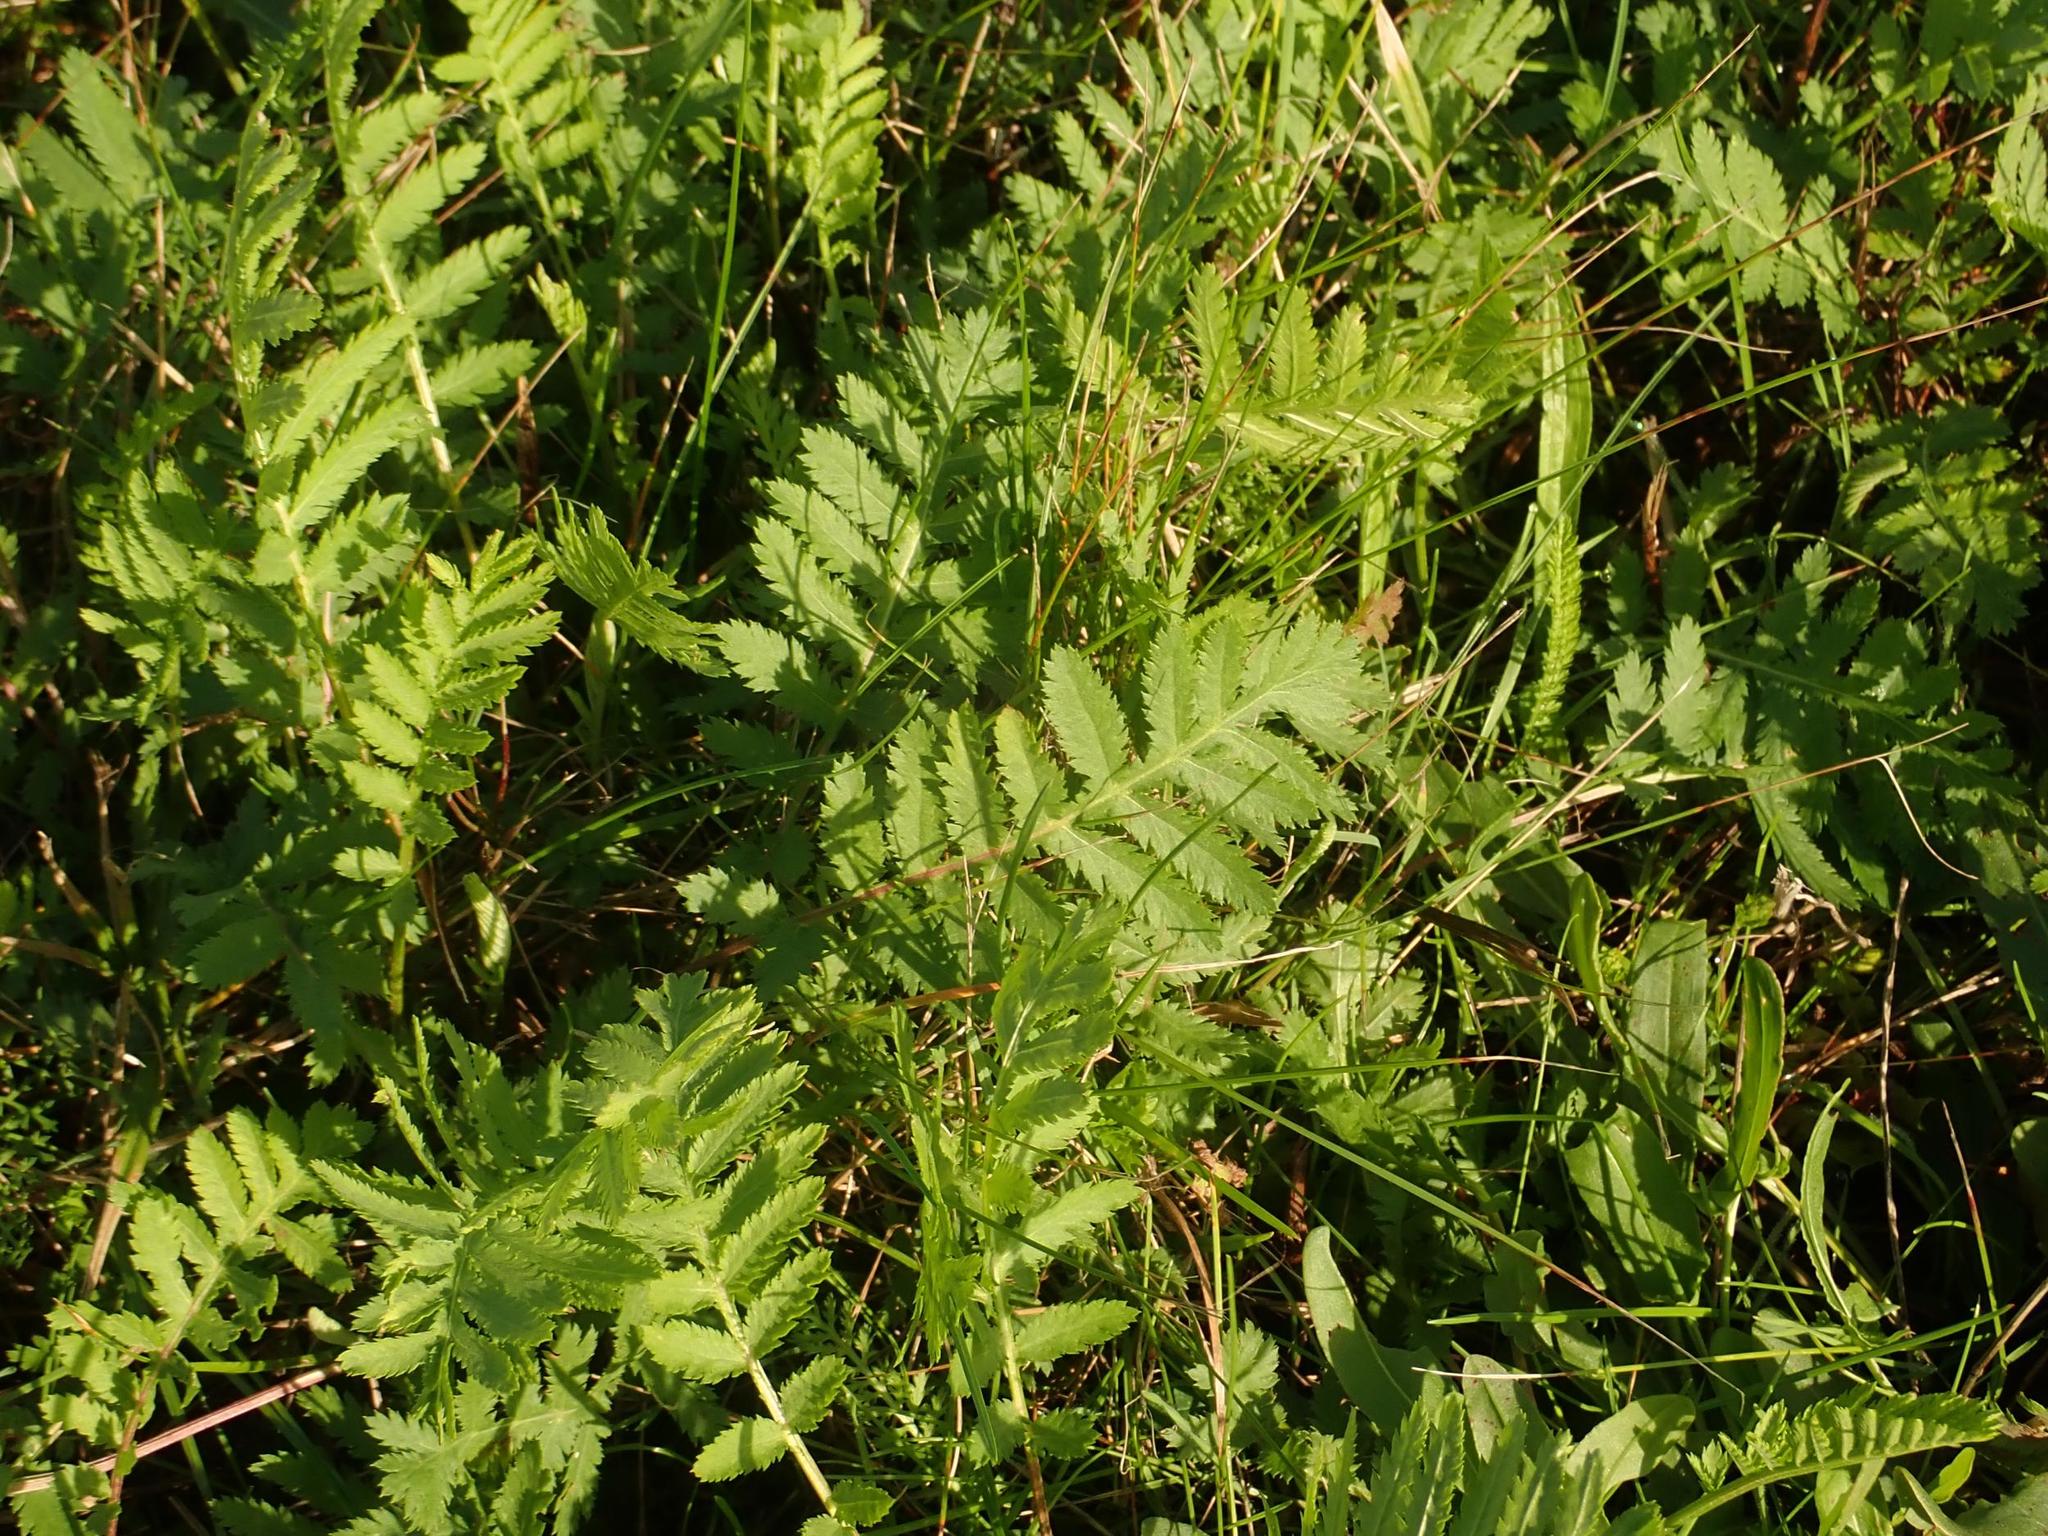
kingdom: Plantae
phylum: Tracheophyta
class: Magnoliopsida
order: Asterales
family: Asteraceae
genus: Tanacetum
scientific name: Tanacetum vulgare
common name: Common tansy
